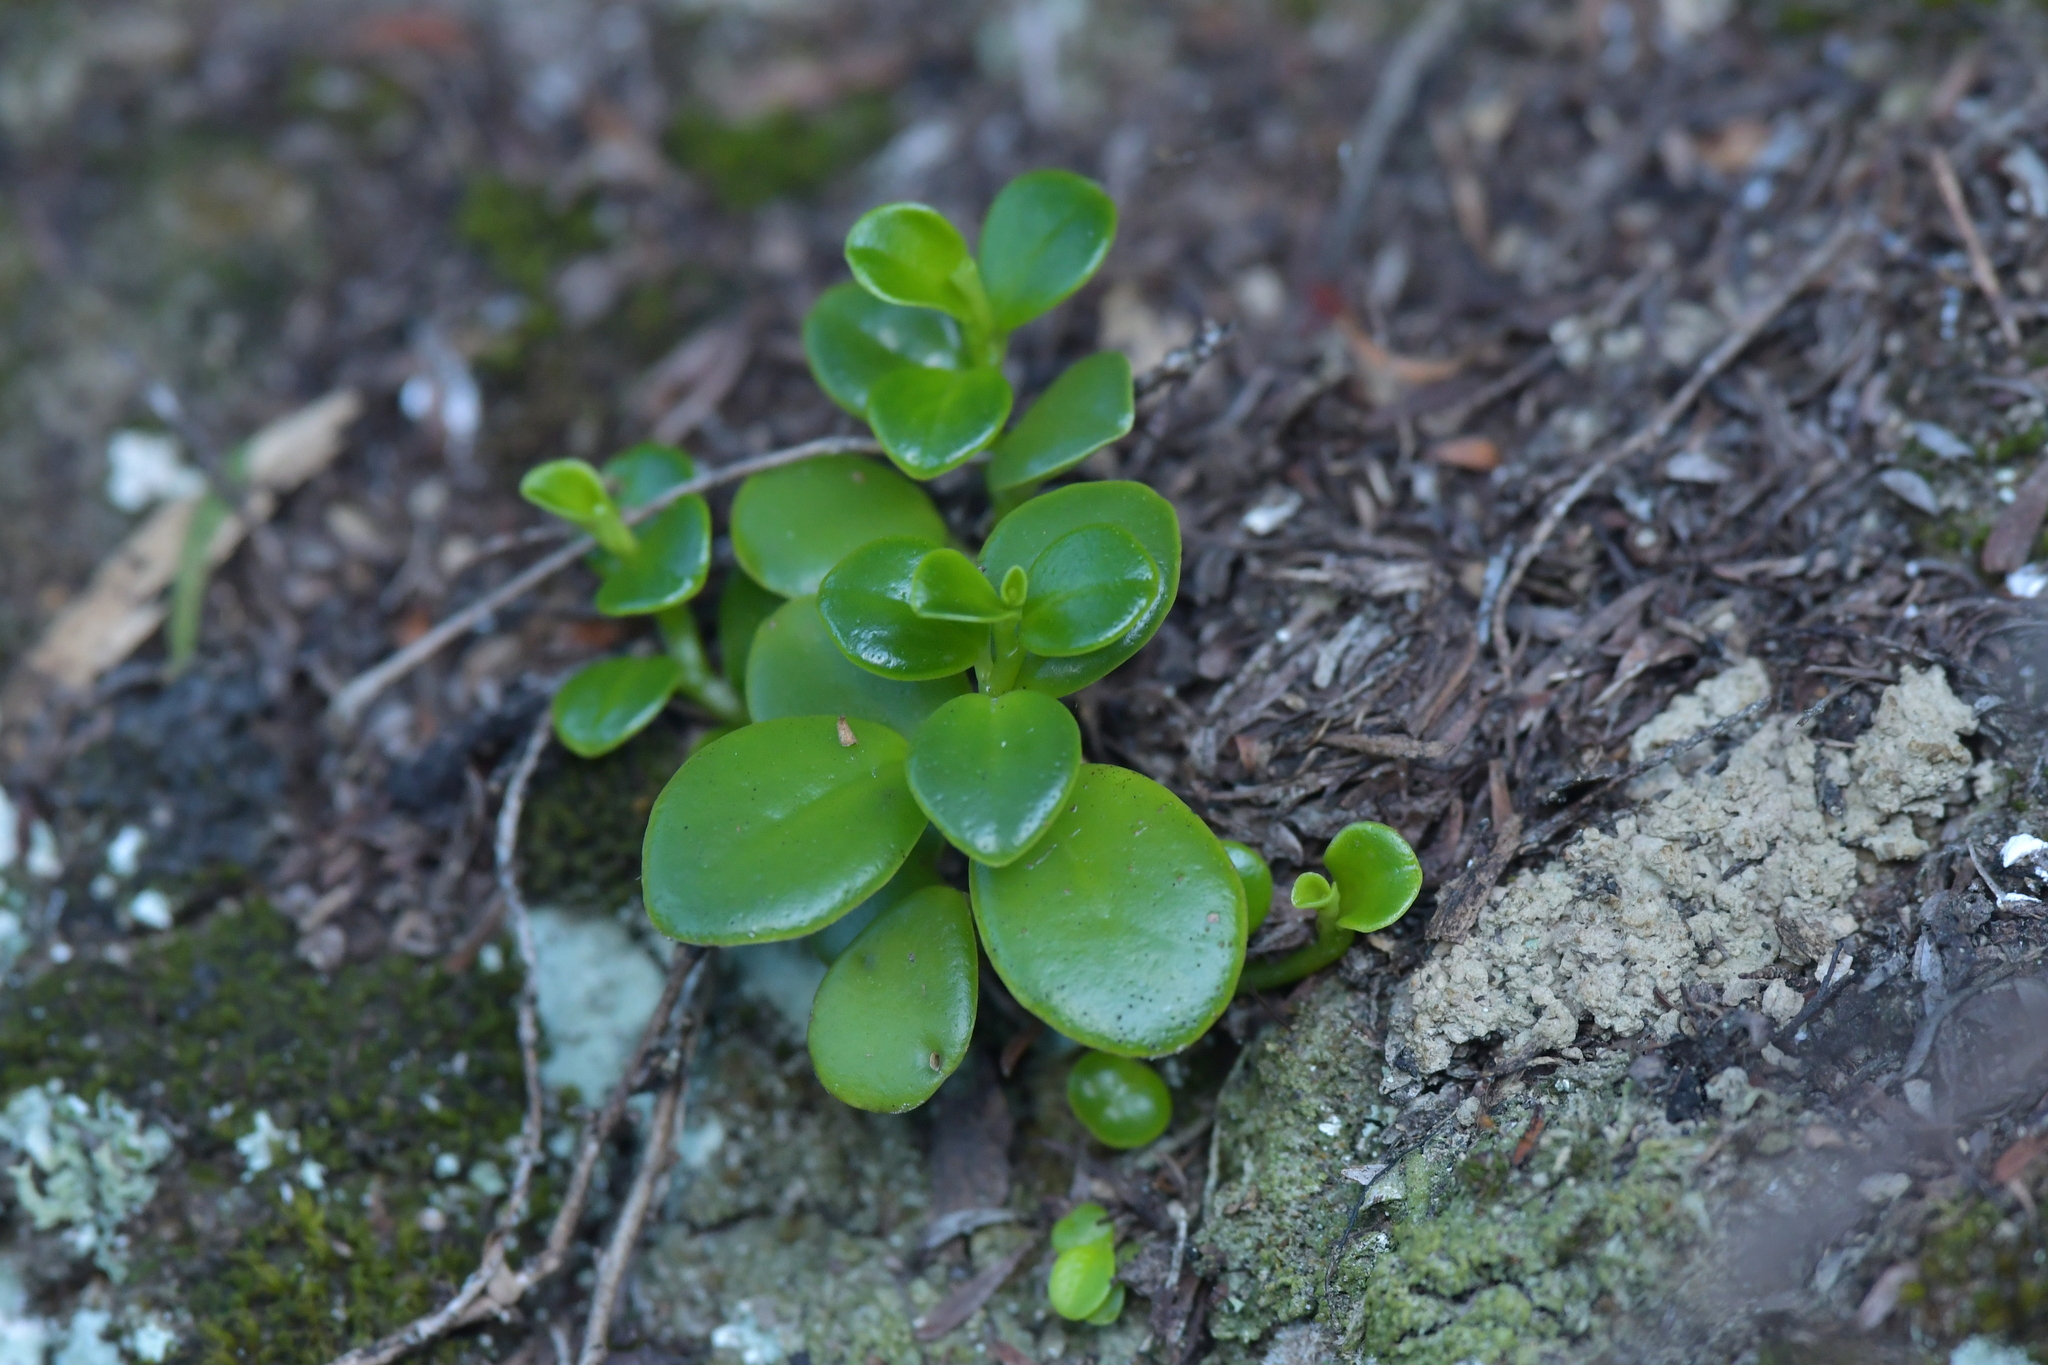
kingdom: Plantae
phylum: Tracheophyta
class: Magnoliopsida
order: Piperales
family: Piperaceae
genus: Peperomia
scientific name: Peperomia urvilleana
